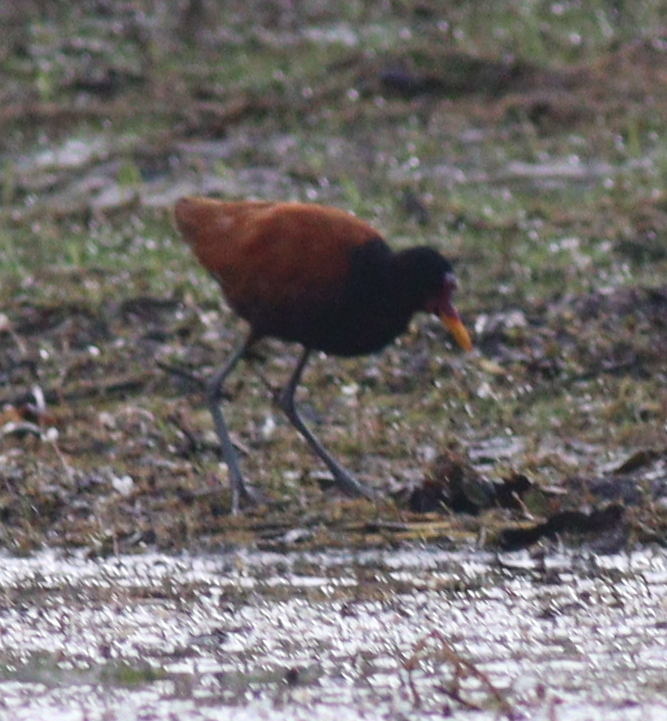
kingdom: Animalia
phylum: Chordata
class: Aves
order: Charadriiformes
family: Jacanidae
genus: Jacana
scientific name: Jacana jacana
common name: Wattled jacana
